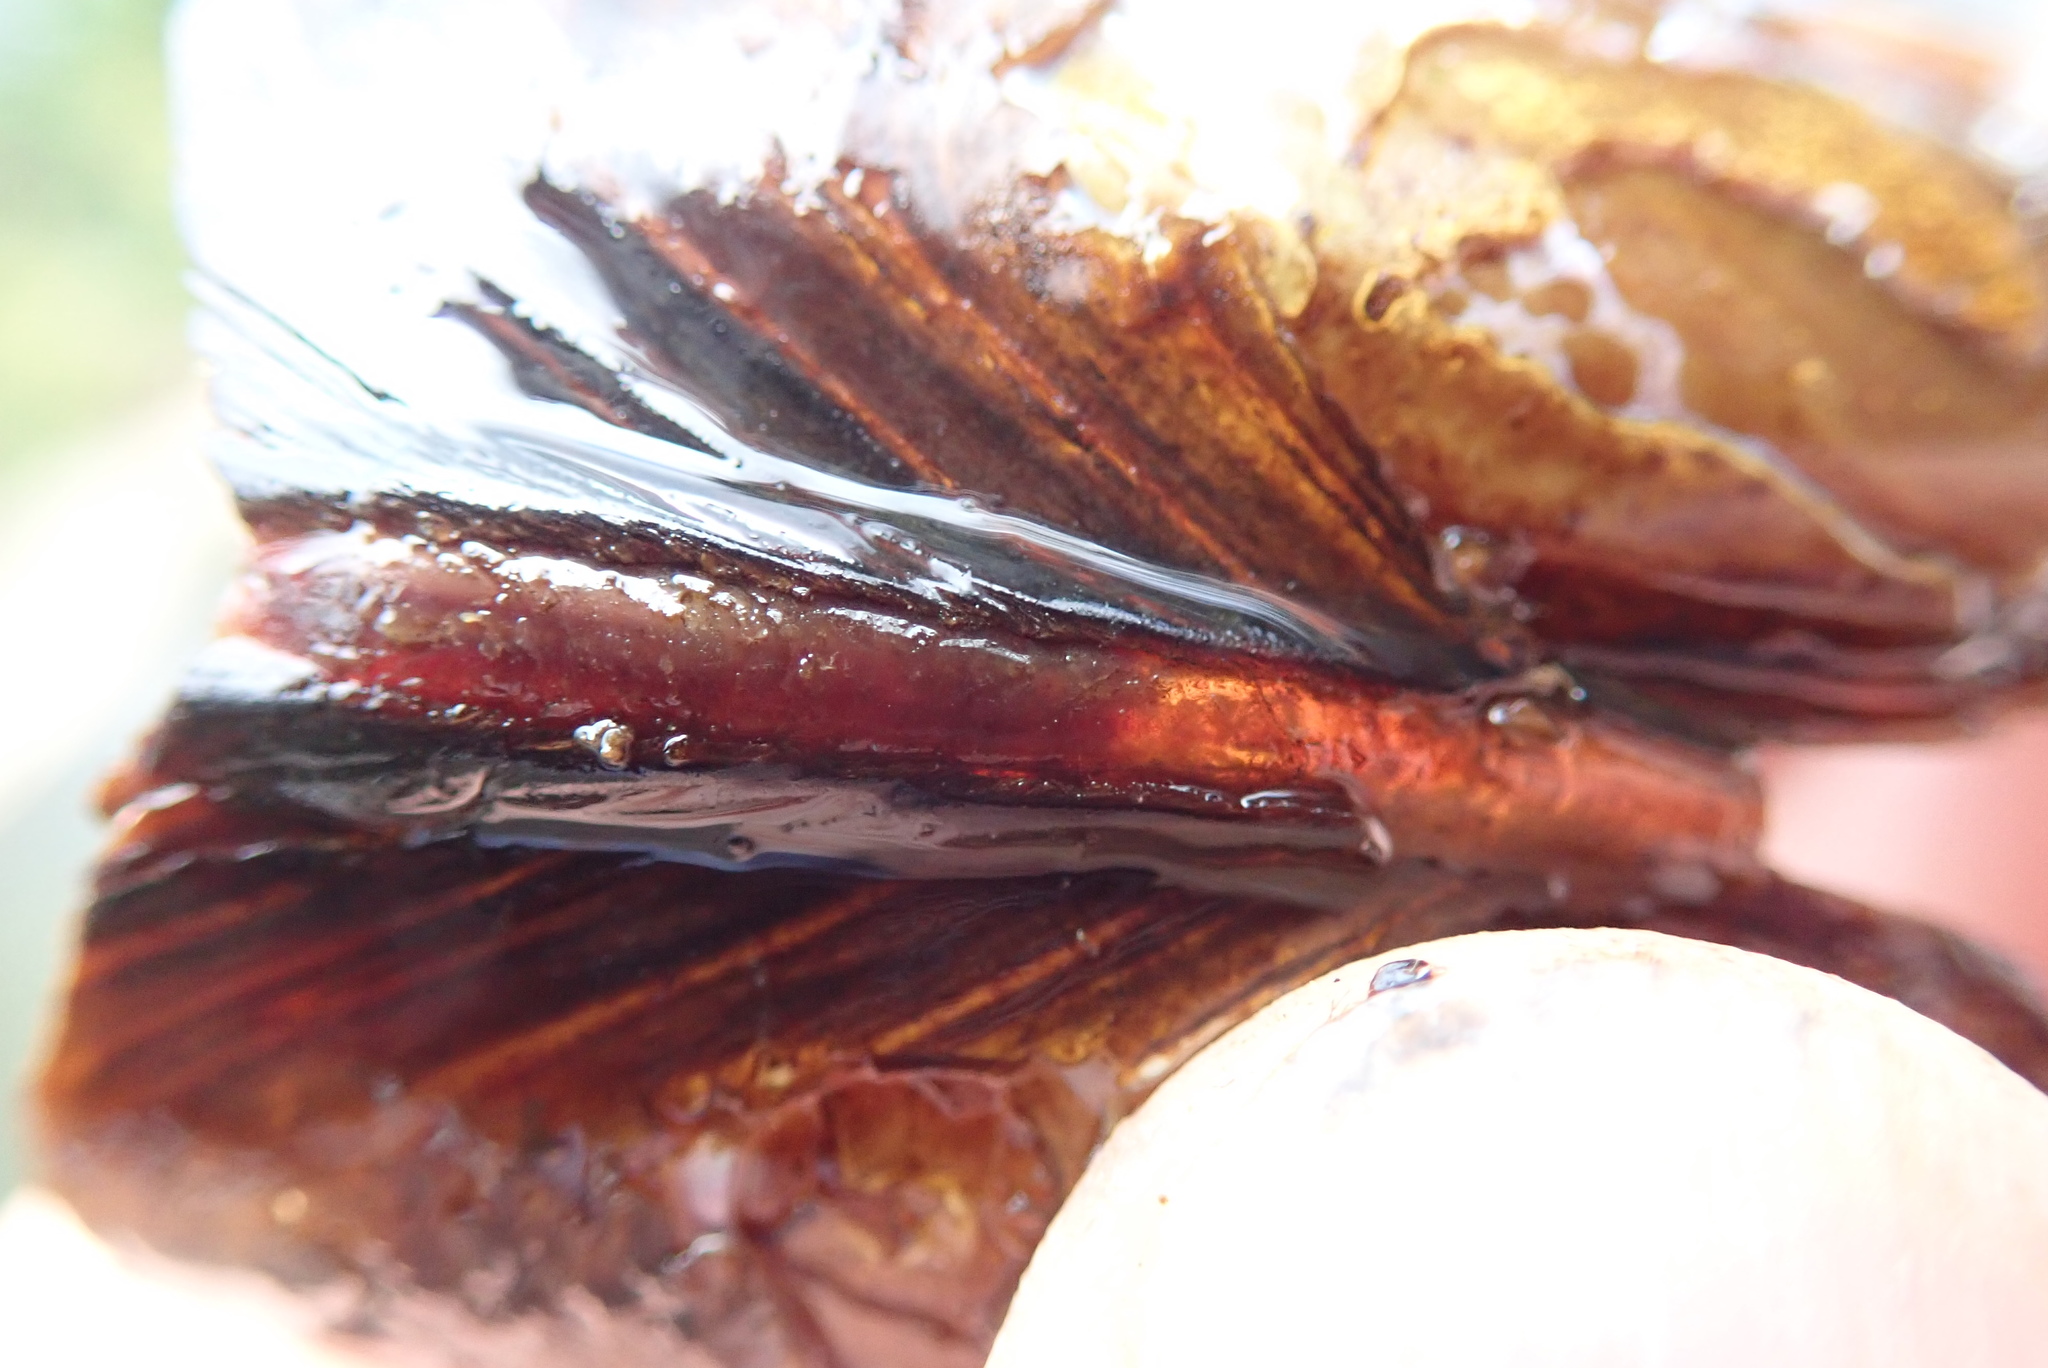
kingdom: Animalia
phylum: Mollusca
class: Bivalvia
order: Unionida
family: Margaritiferidae
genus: Margaritifera
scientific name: Margaritifera falcata
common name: Western pearlshell
